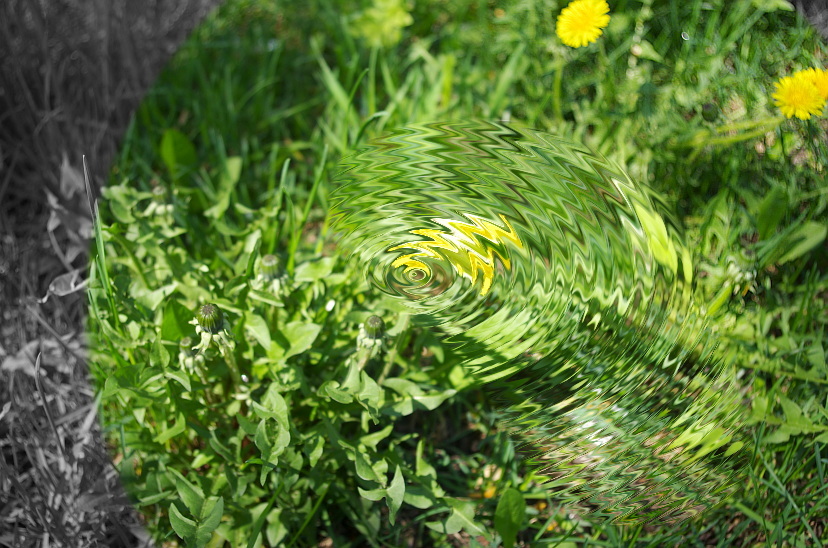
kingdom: Plantae
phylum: Tracheophyta
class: Magnoliopsida
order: Asterales
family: Asteraceae
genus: Taraxacum
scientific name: Taraxacum officinale
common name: Common dandelion
